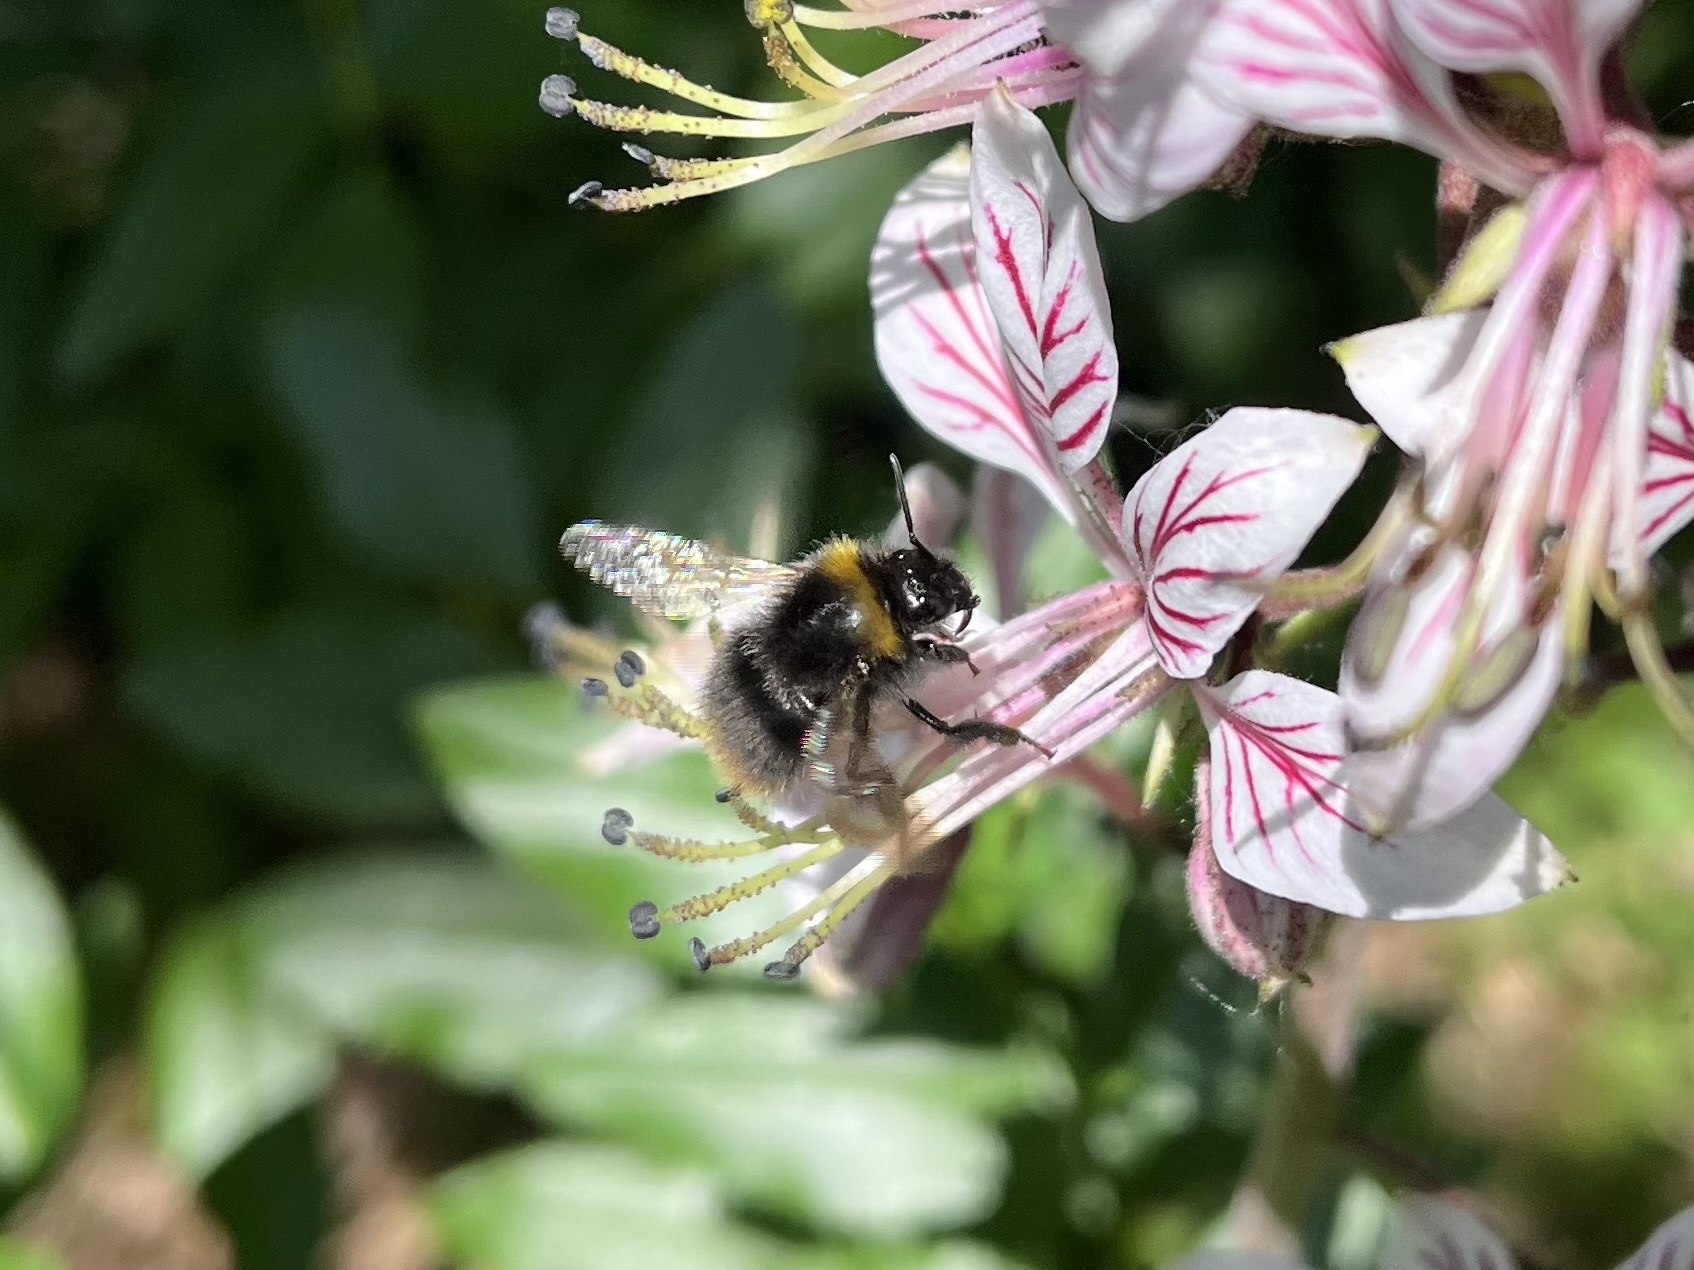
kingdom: Animalia
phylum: Arthropoda
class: Insecta
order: Hymenoptera
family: Apidae
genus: Bombus
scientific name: Bombus pratorum
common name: Early humble-bee
